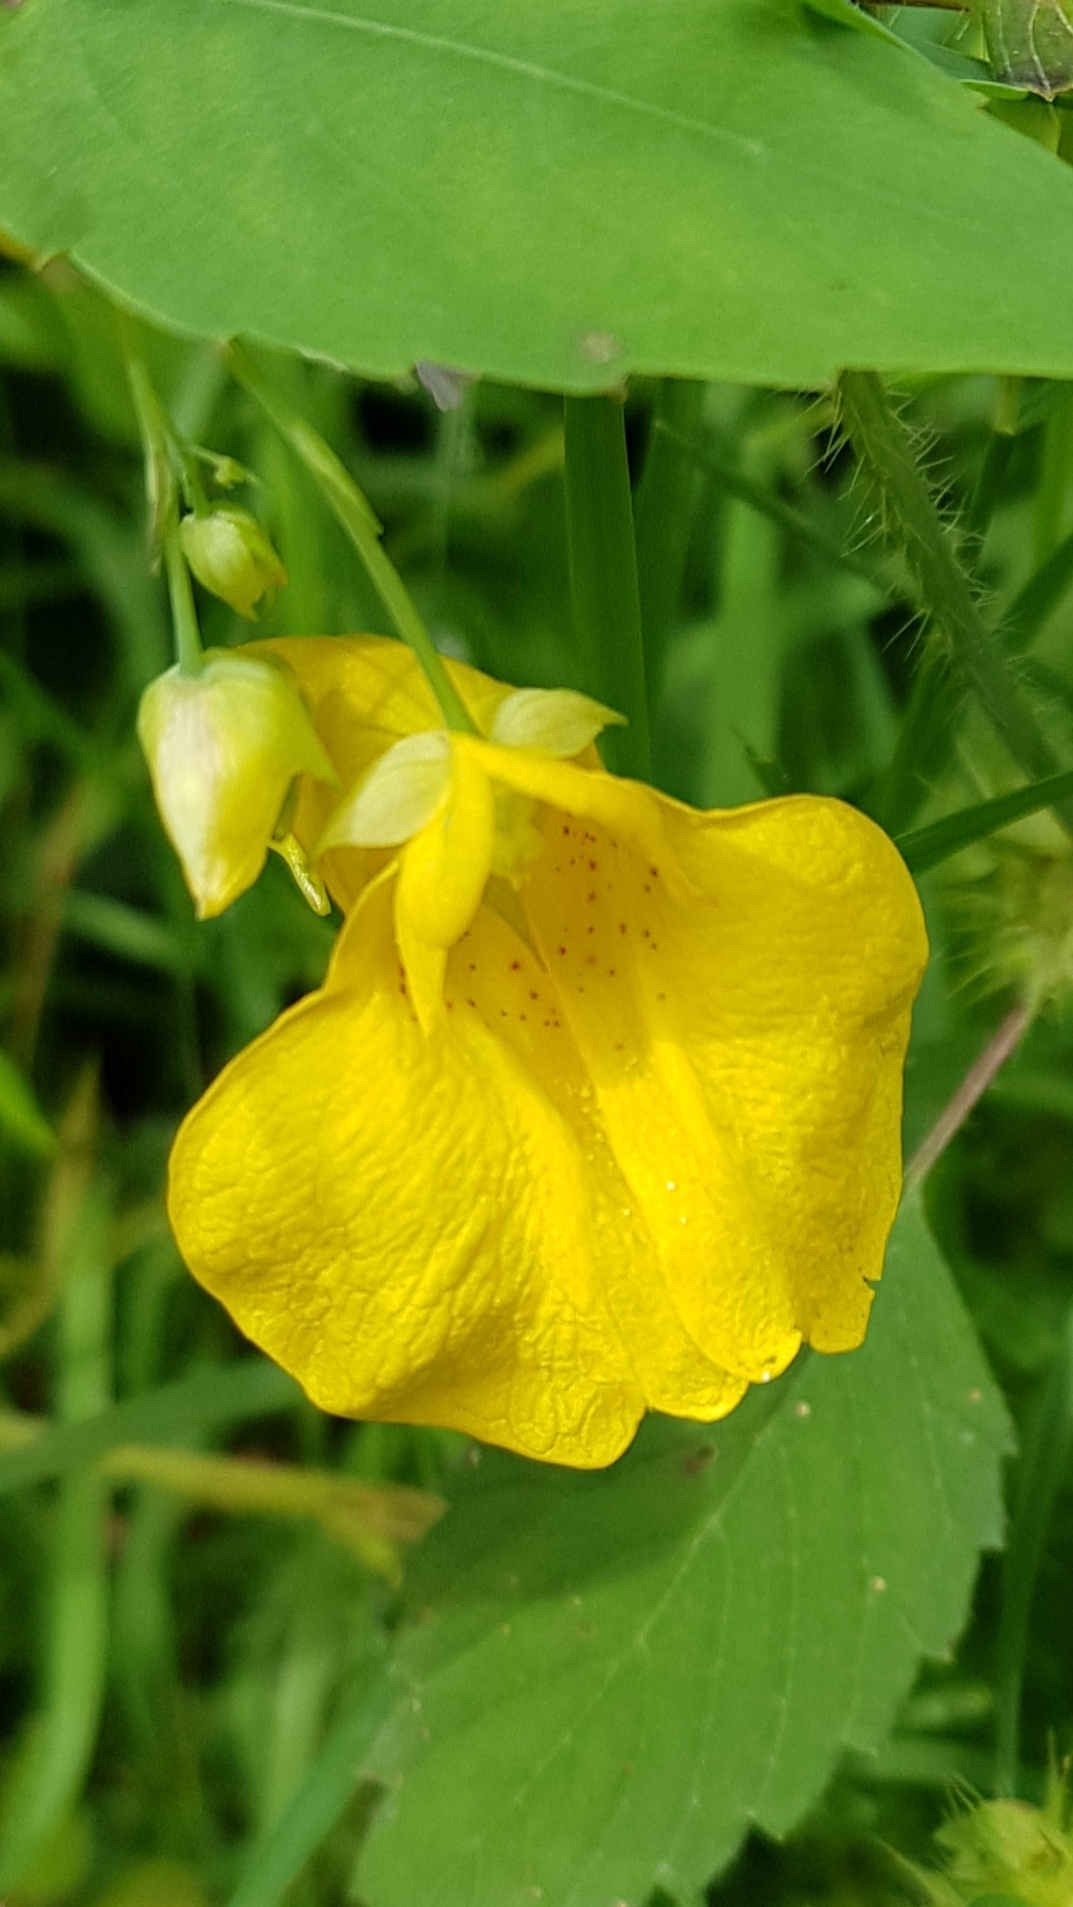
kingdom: Plantae
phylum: Tracheophyta
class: Magnoliopsida
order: Ericales
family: Balsaminaceae
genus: Impatiens
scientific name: Impatiens noli-tangere
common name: Touch-me-not balsam
